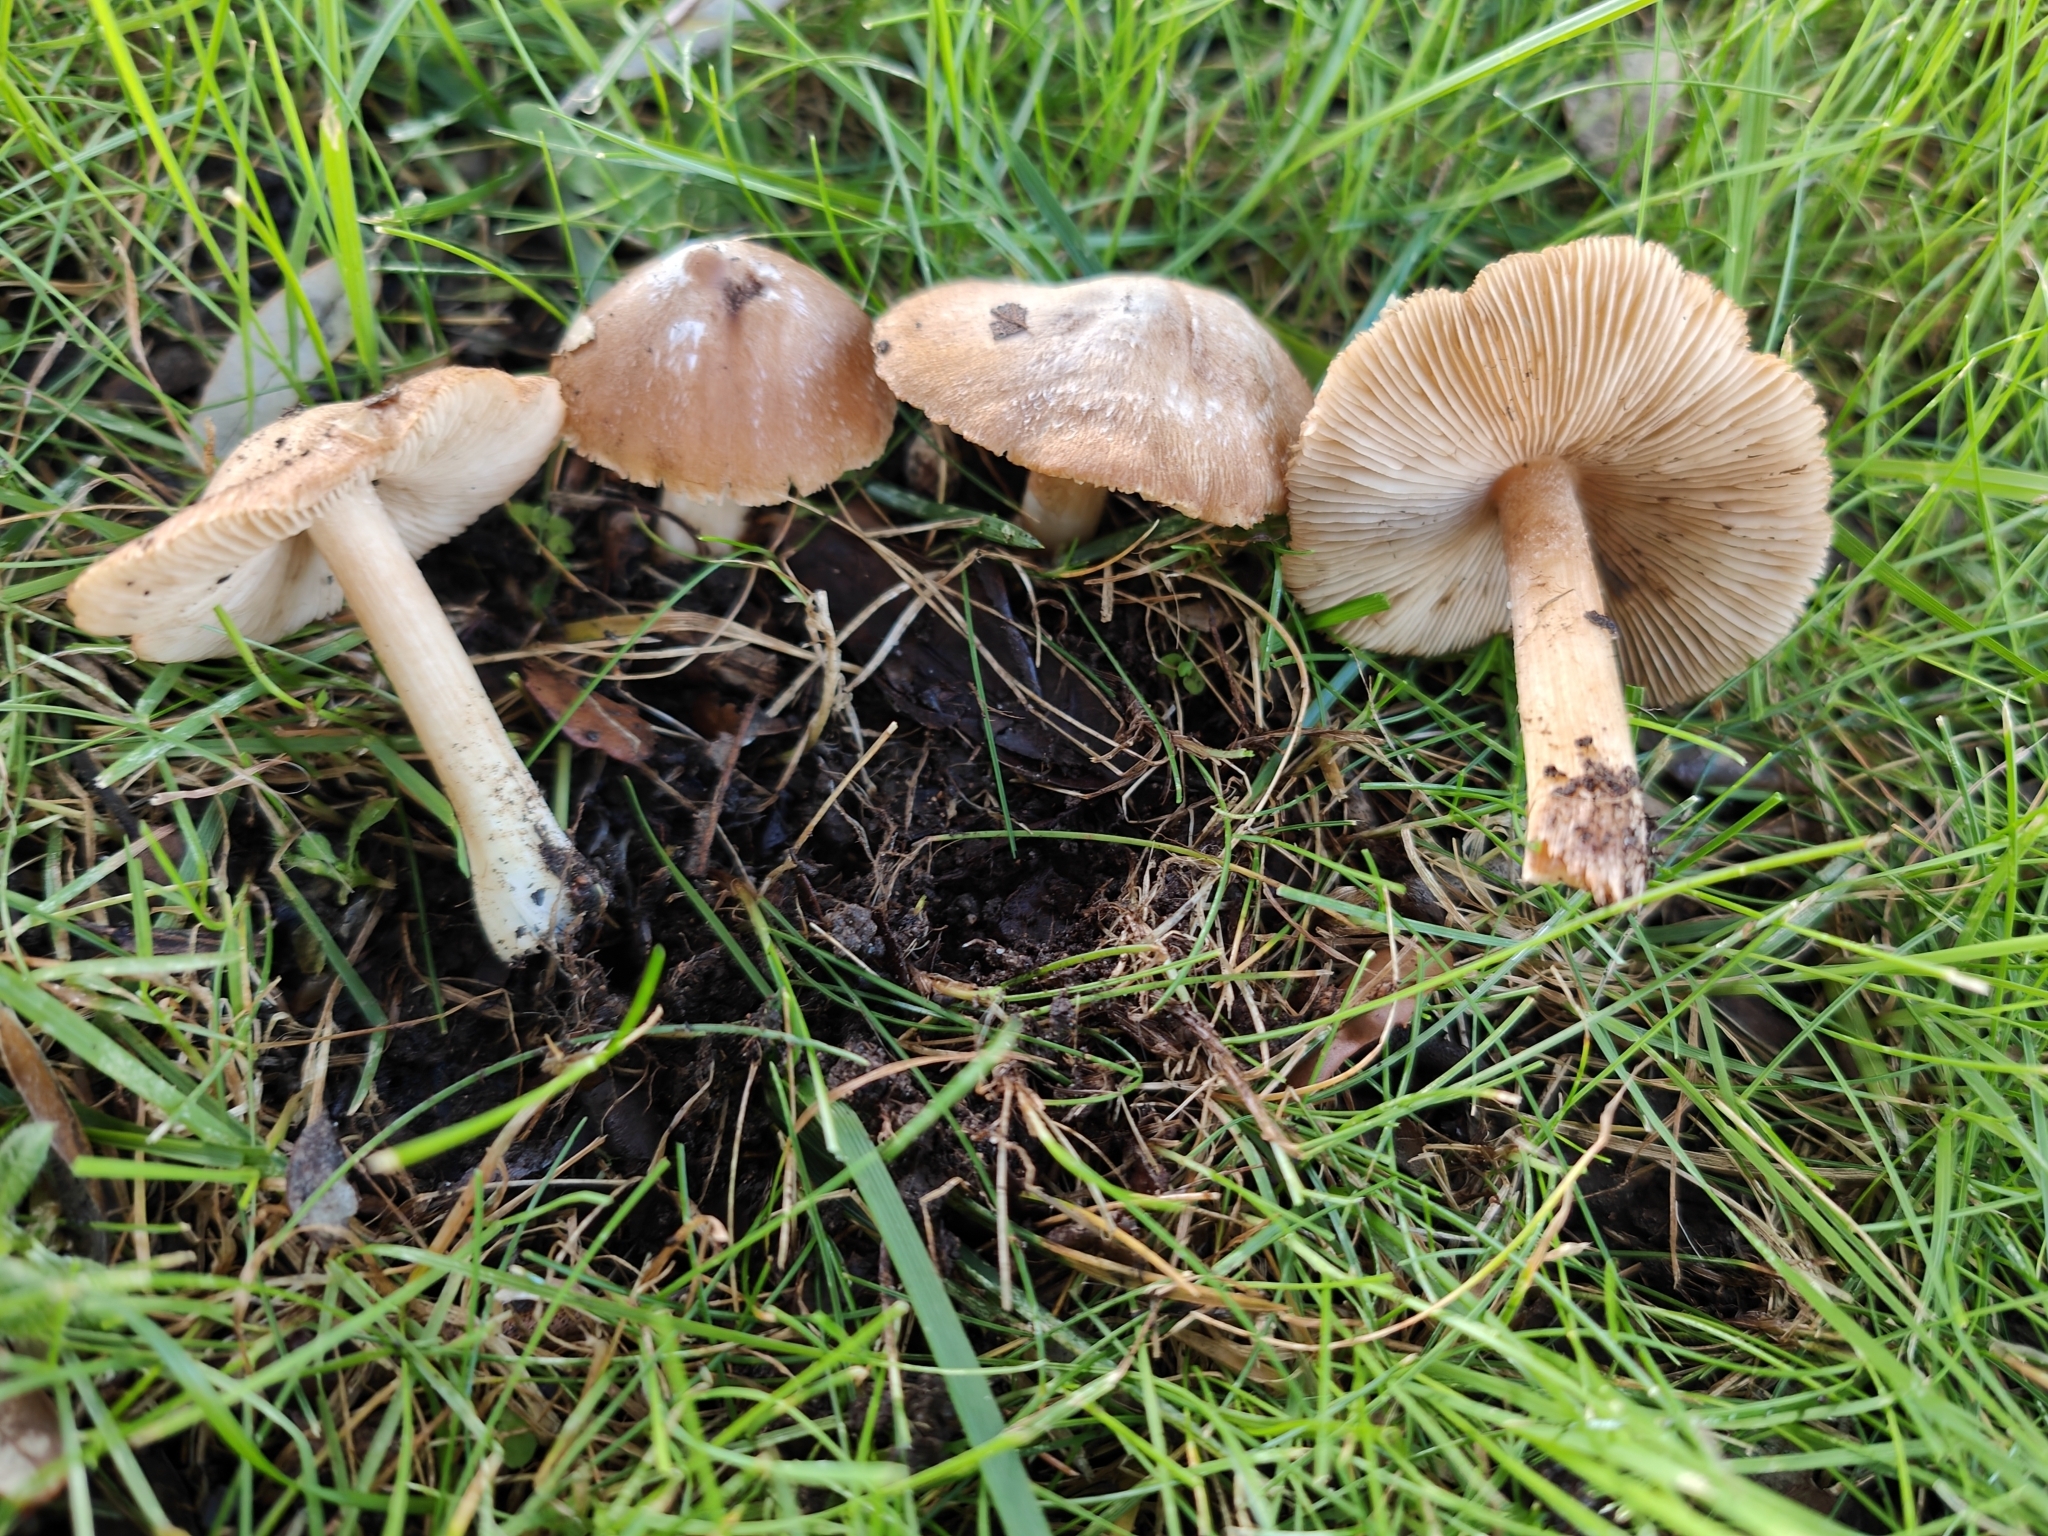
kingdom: Fungi
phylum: Basidiomycota
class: Agaricomycetes
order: Agaricales
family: Inocybaceae
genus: Inosperma
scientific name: Inosperma maculatum
